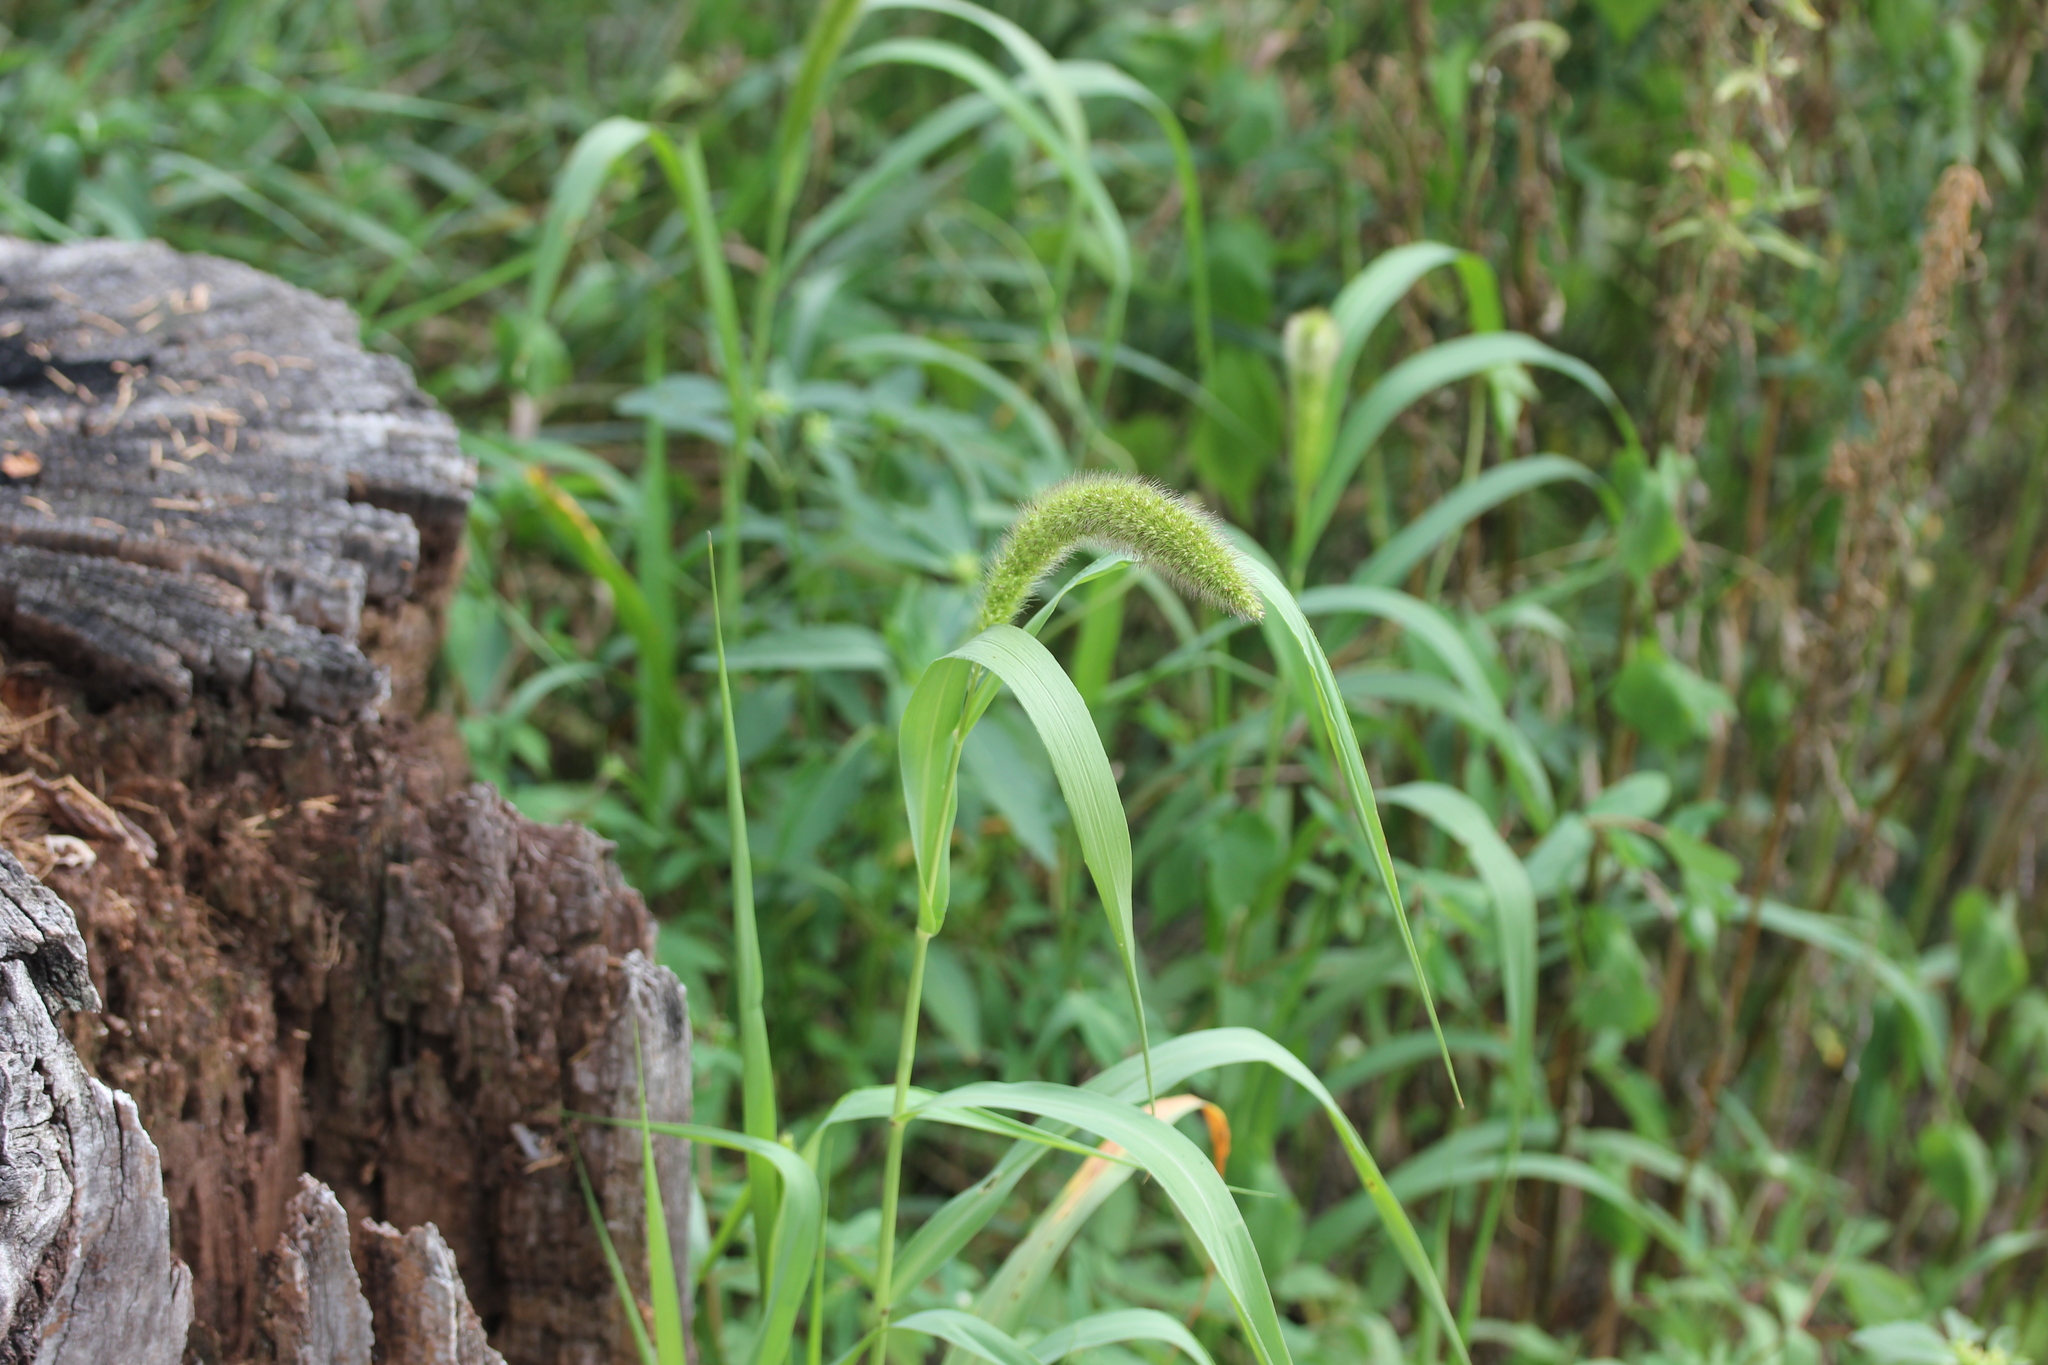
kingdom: Plantae
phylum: Tracheophyta
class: Liliopsida
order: Poales
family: Poaceae
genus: Setaria
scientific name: Setaria faberi
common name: Nodding bristle-grass
